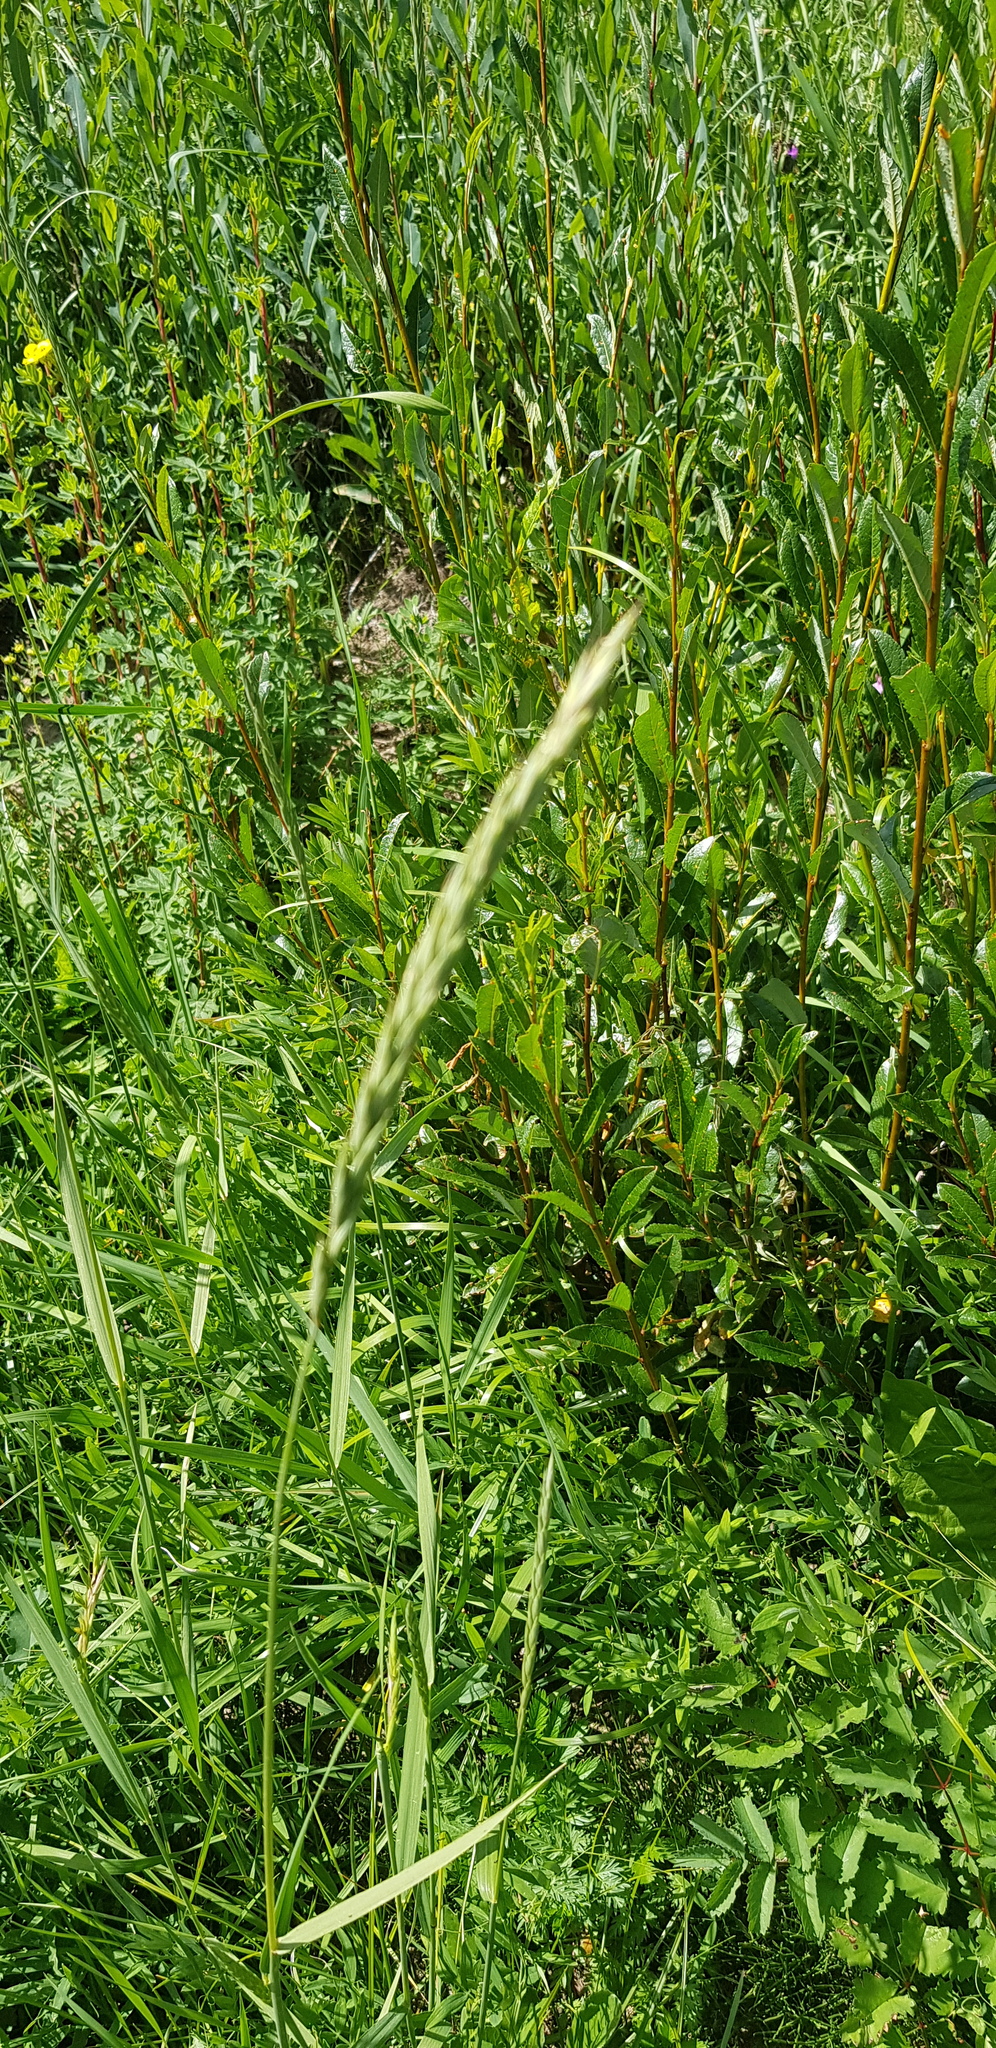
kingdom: Plantae
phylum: Tracheophyta
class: Liliopsida
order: Poales
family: Poaceae
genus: Elymus
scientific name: Elymus gmelinii
